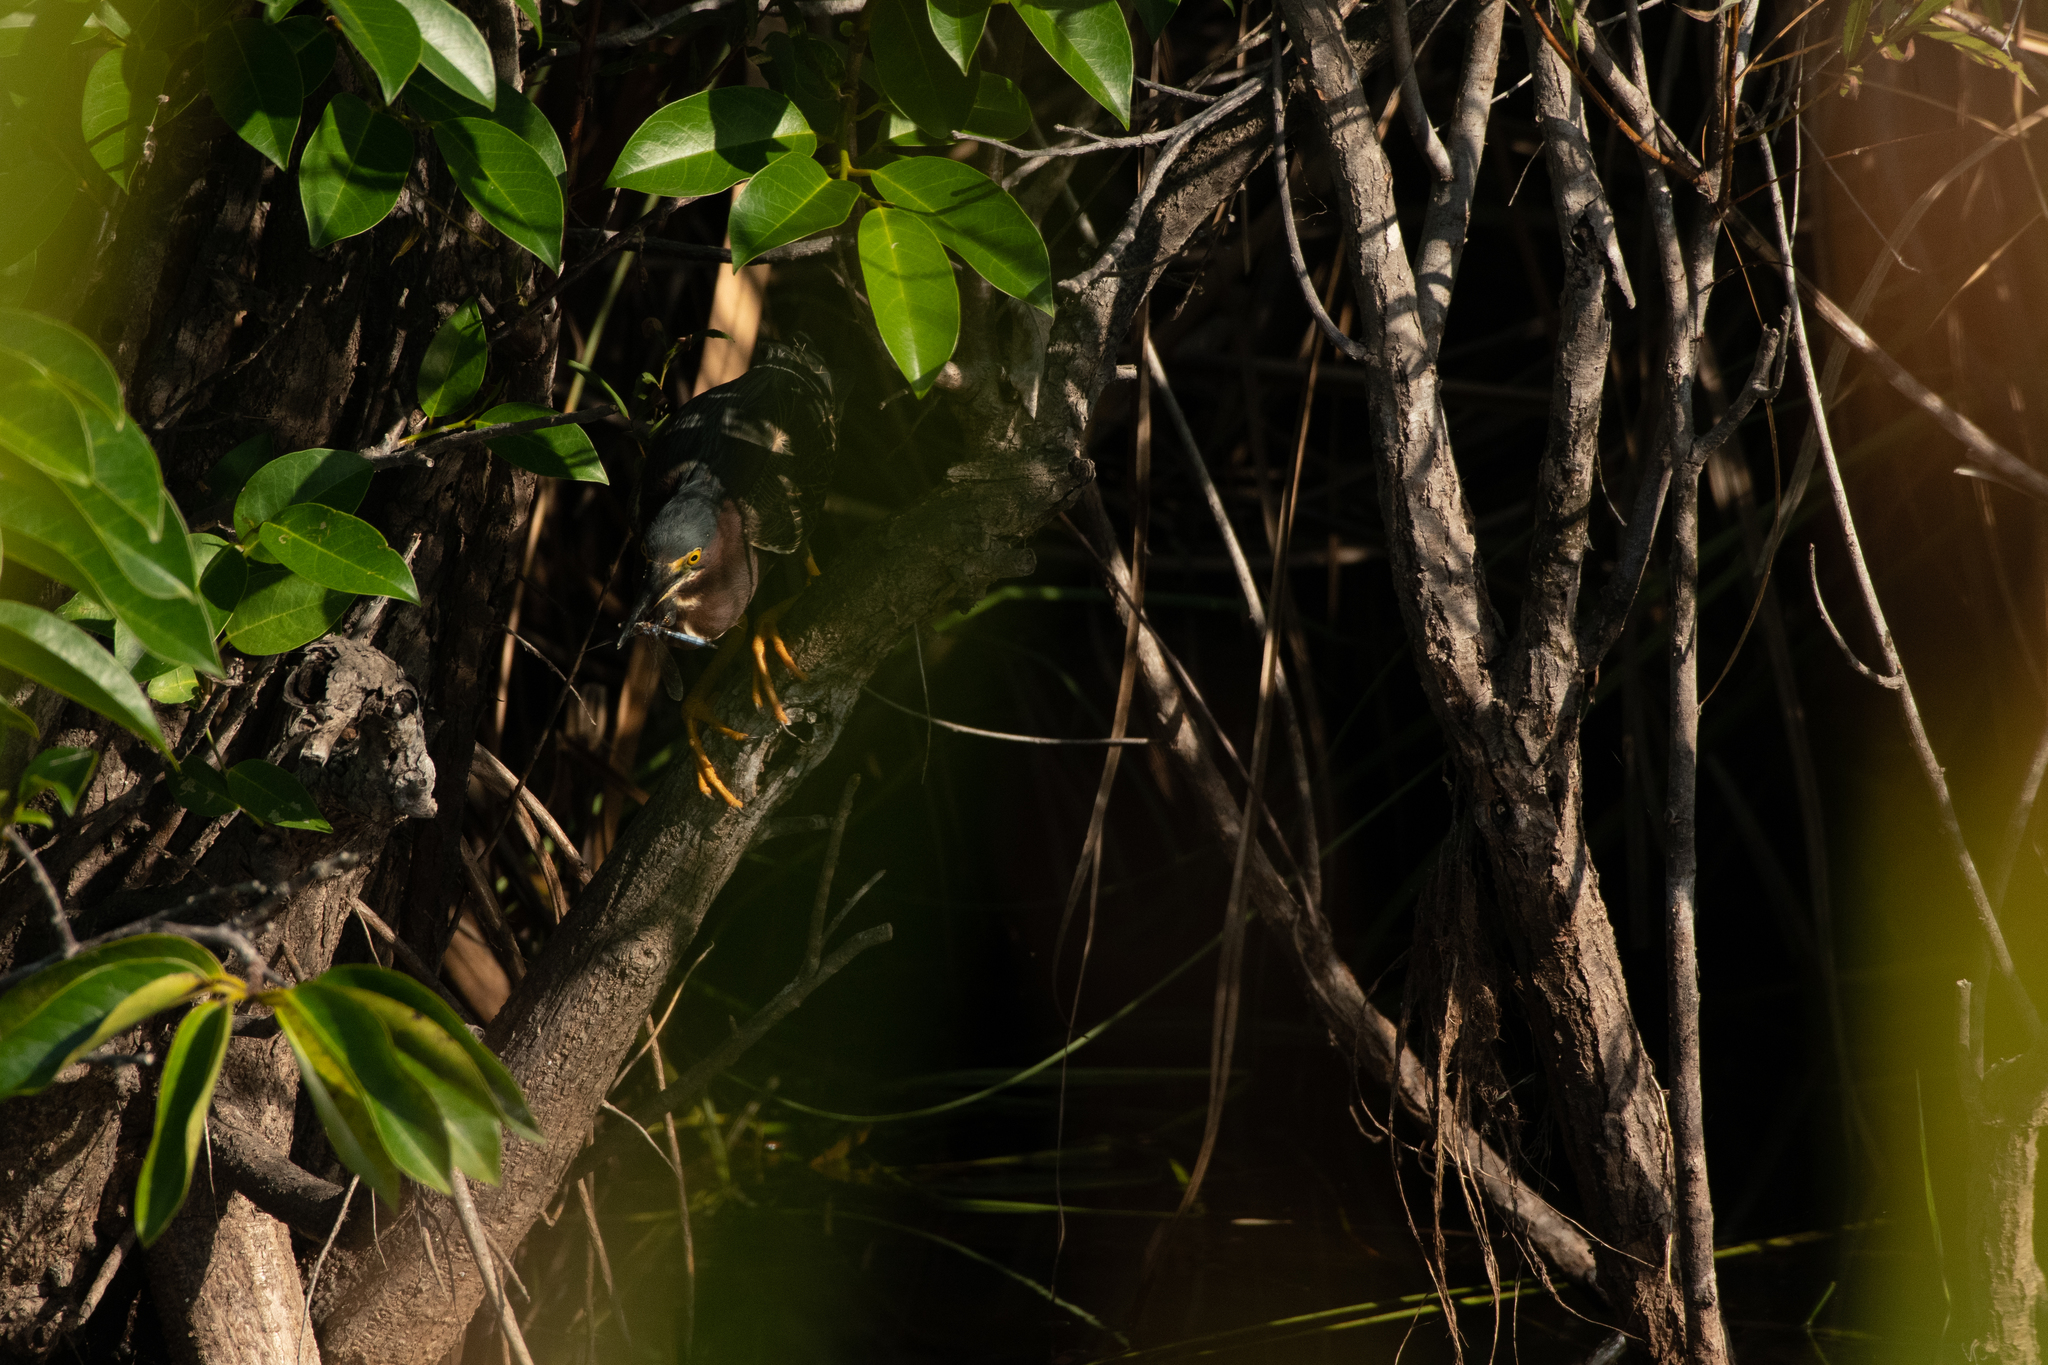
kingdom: Animalia
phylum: Chordata
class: Aves
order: Pelecaniformes
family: Ardeidae
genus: Butorides
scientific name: Butorides virescens
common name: Green heron
